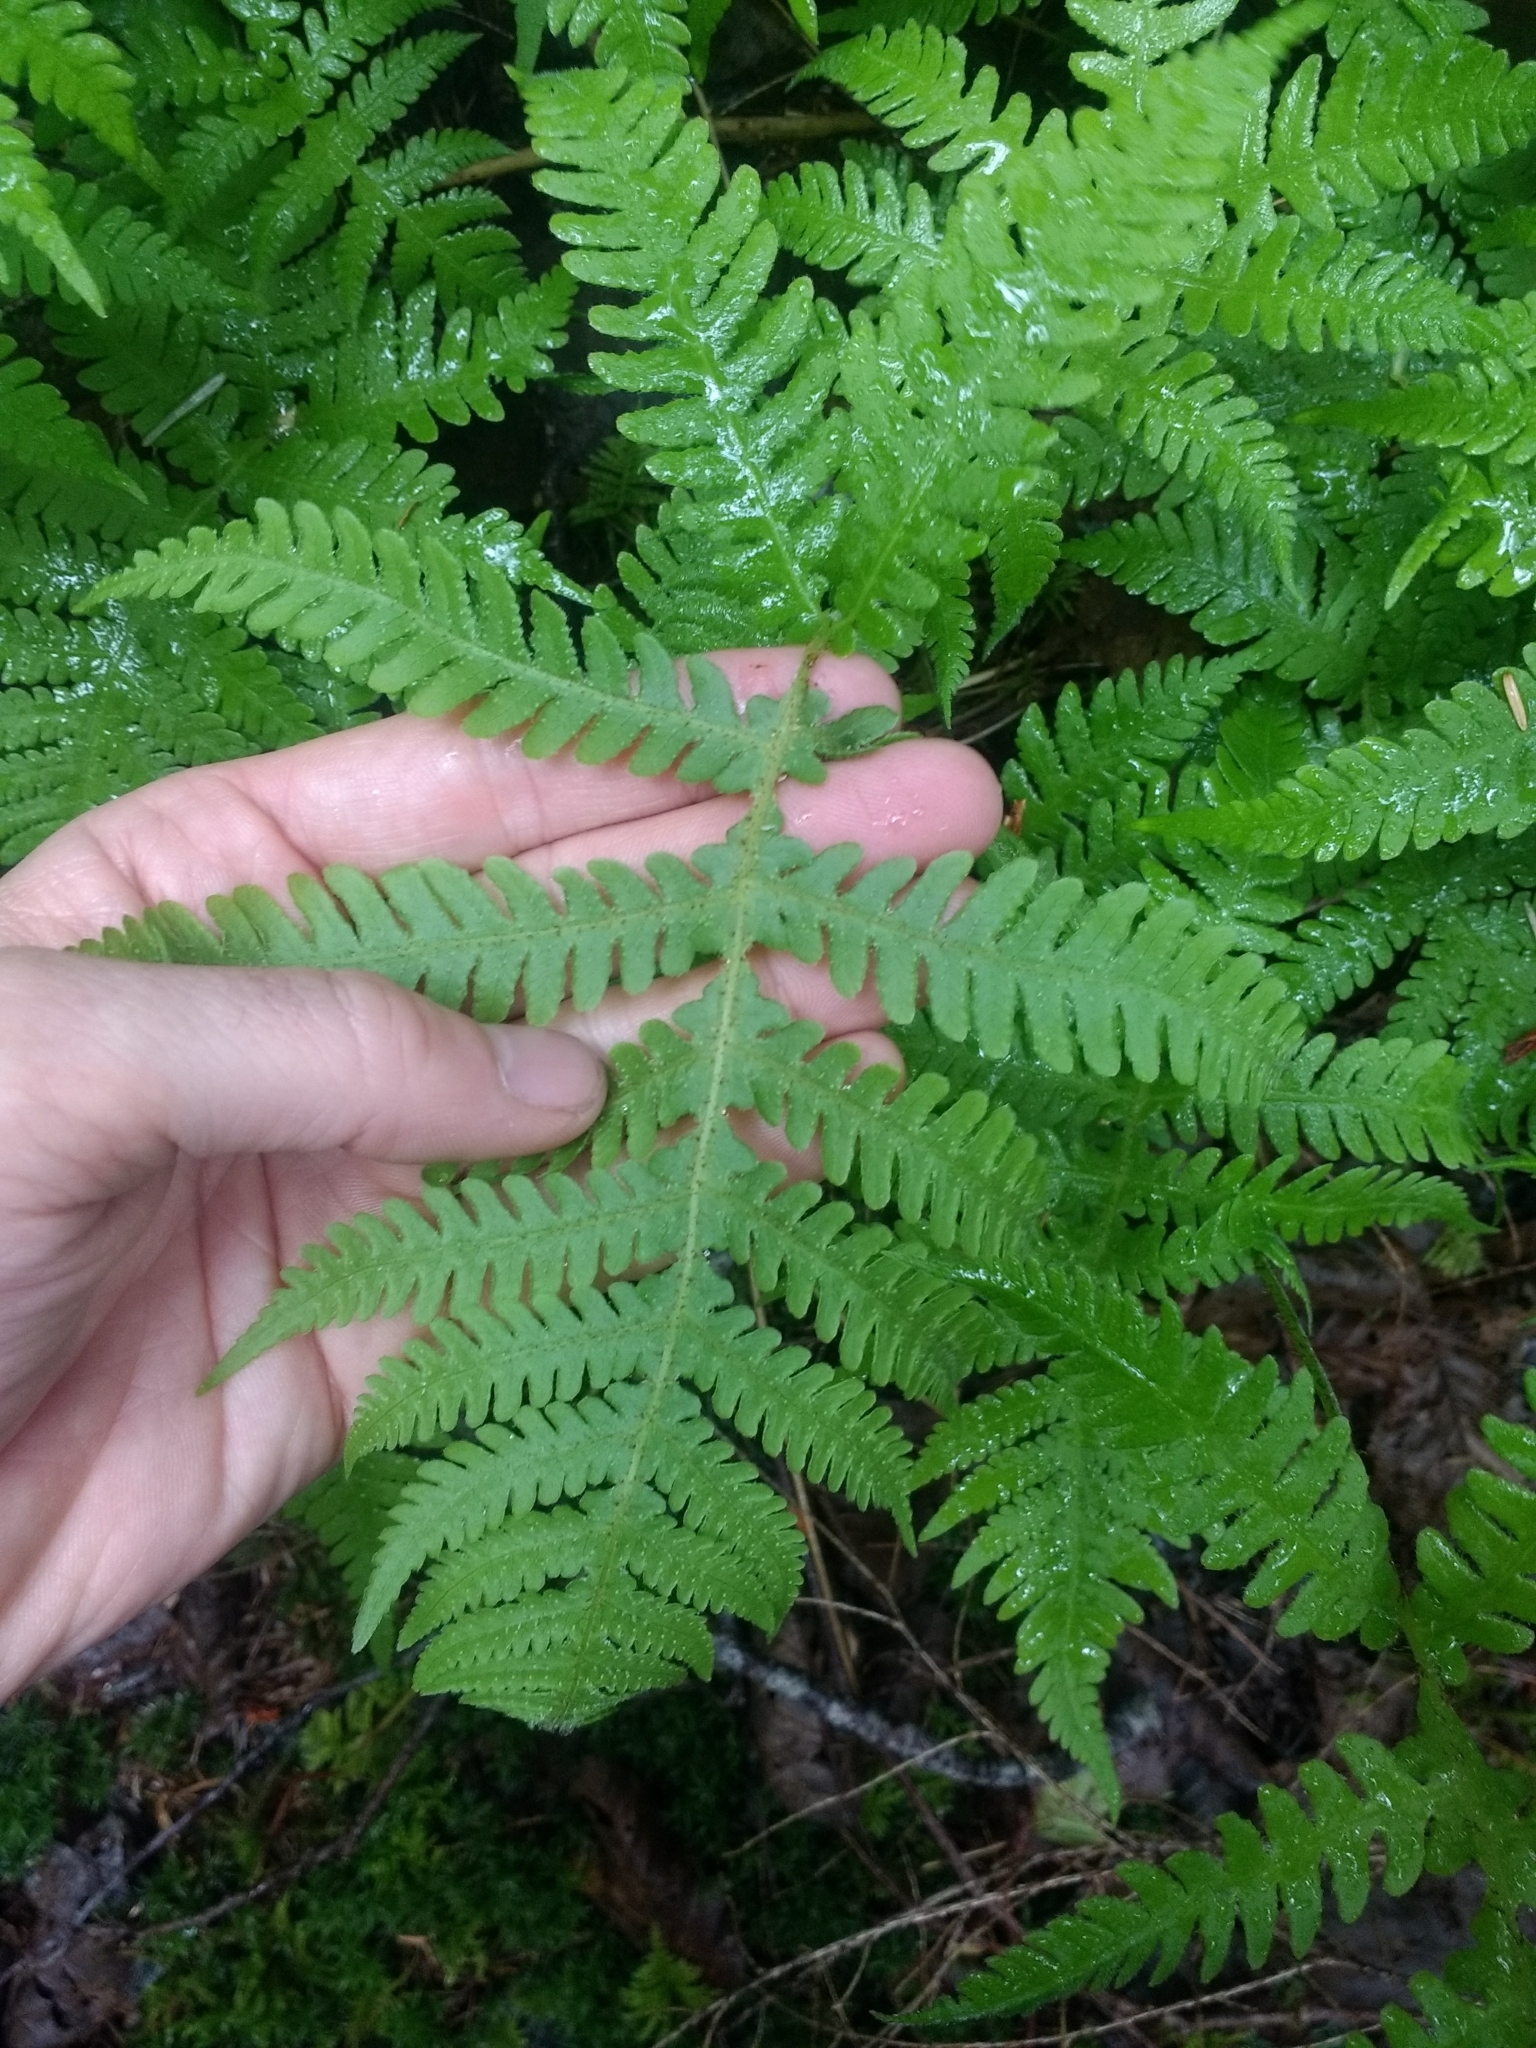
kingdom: Plantae
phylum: Tracheophyta
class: Polypodiopsida
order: Polypodiales
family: Thelypteridaceae
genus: Phegopteris
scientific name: Phegopteris connectilis
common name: Beech fern
